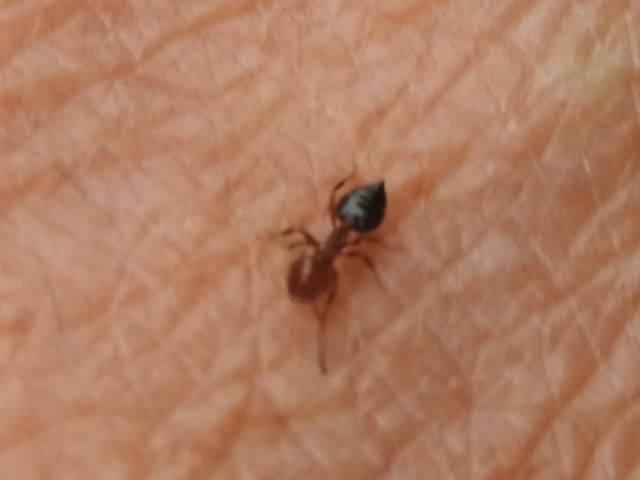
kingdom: Animalia
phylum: Arthropoda
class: Insecta
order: Hymenoptera
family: Formicidae
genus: Crematogaster
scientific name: Crematogaster laeviuscula
